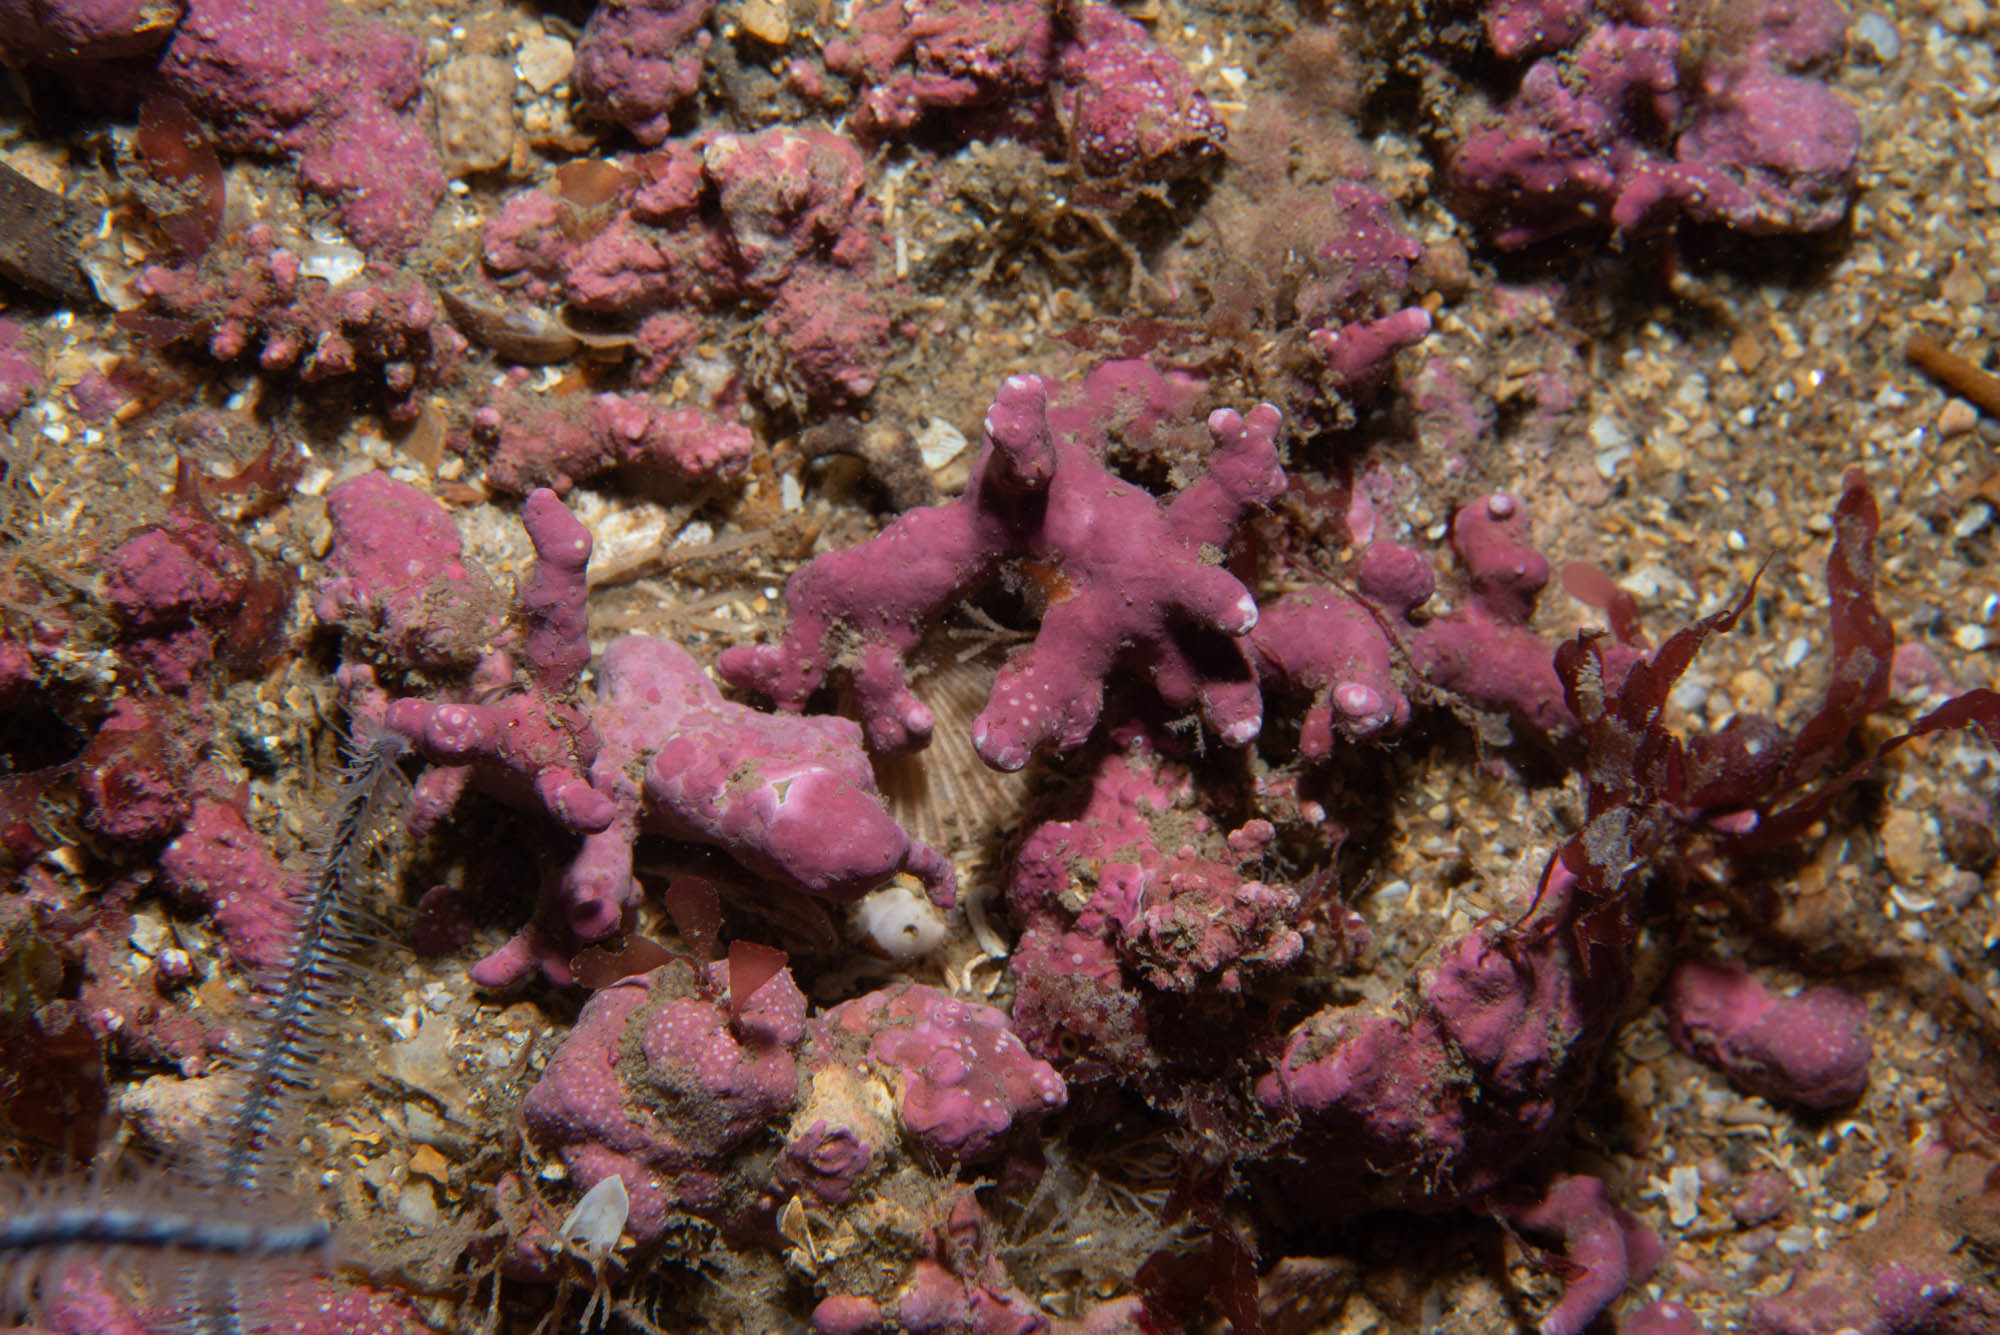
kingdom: Plantae
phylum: Rhodophyta
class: Florideophyceae
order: Corallinales
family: Hapalidiaceae
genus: Phymatolithon
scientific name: Phymatolithon calcareum
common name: Common maërl
